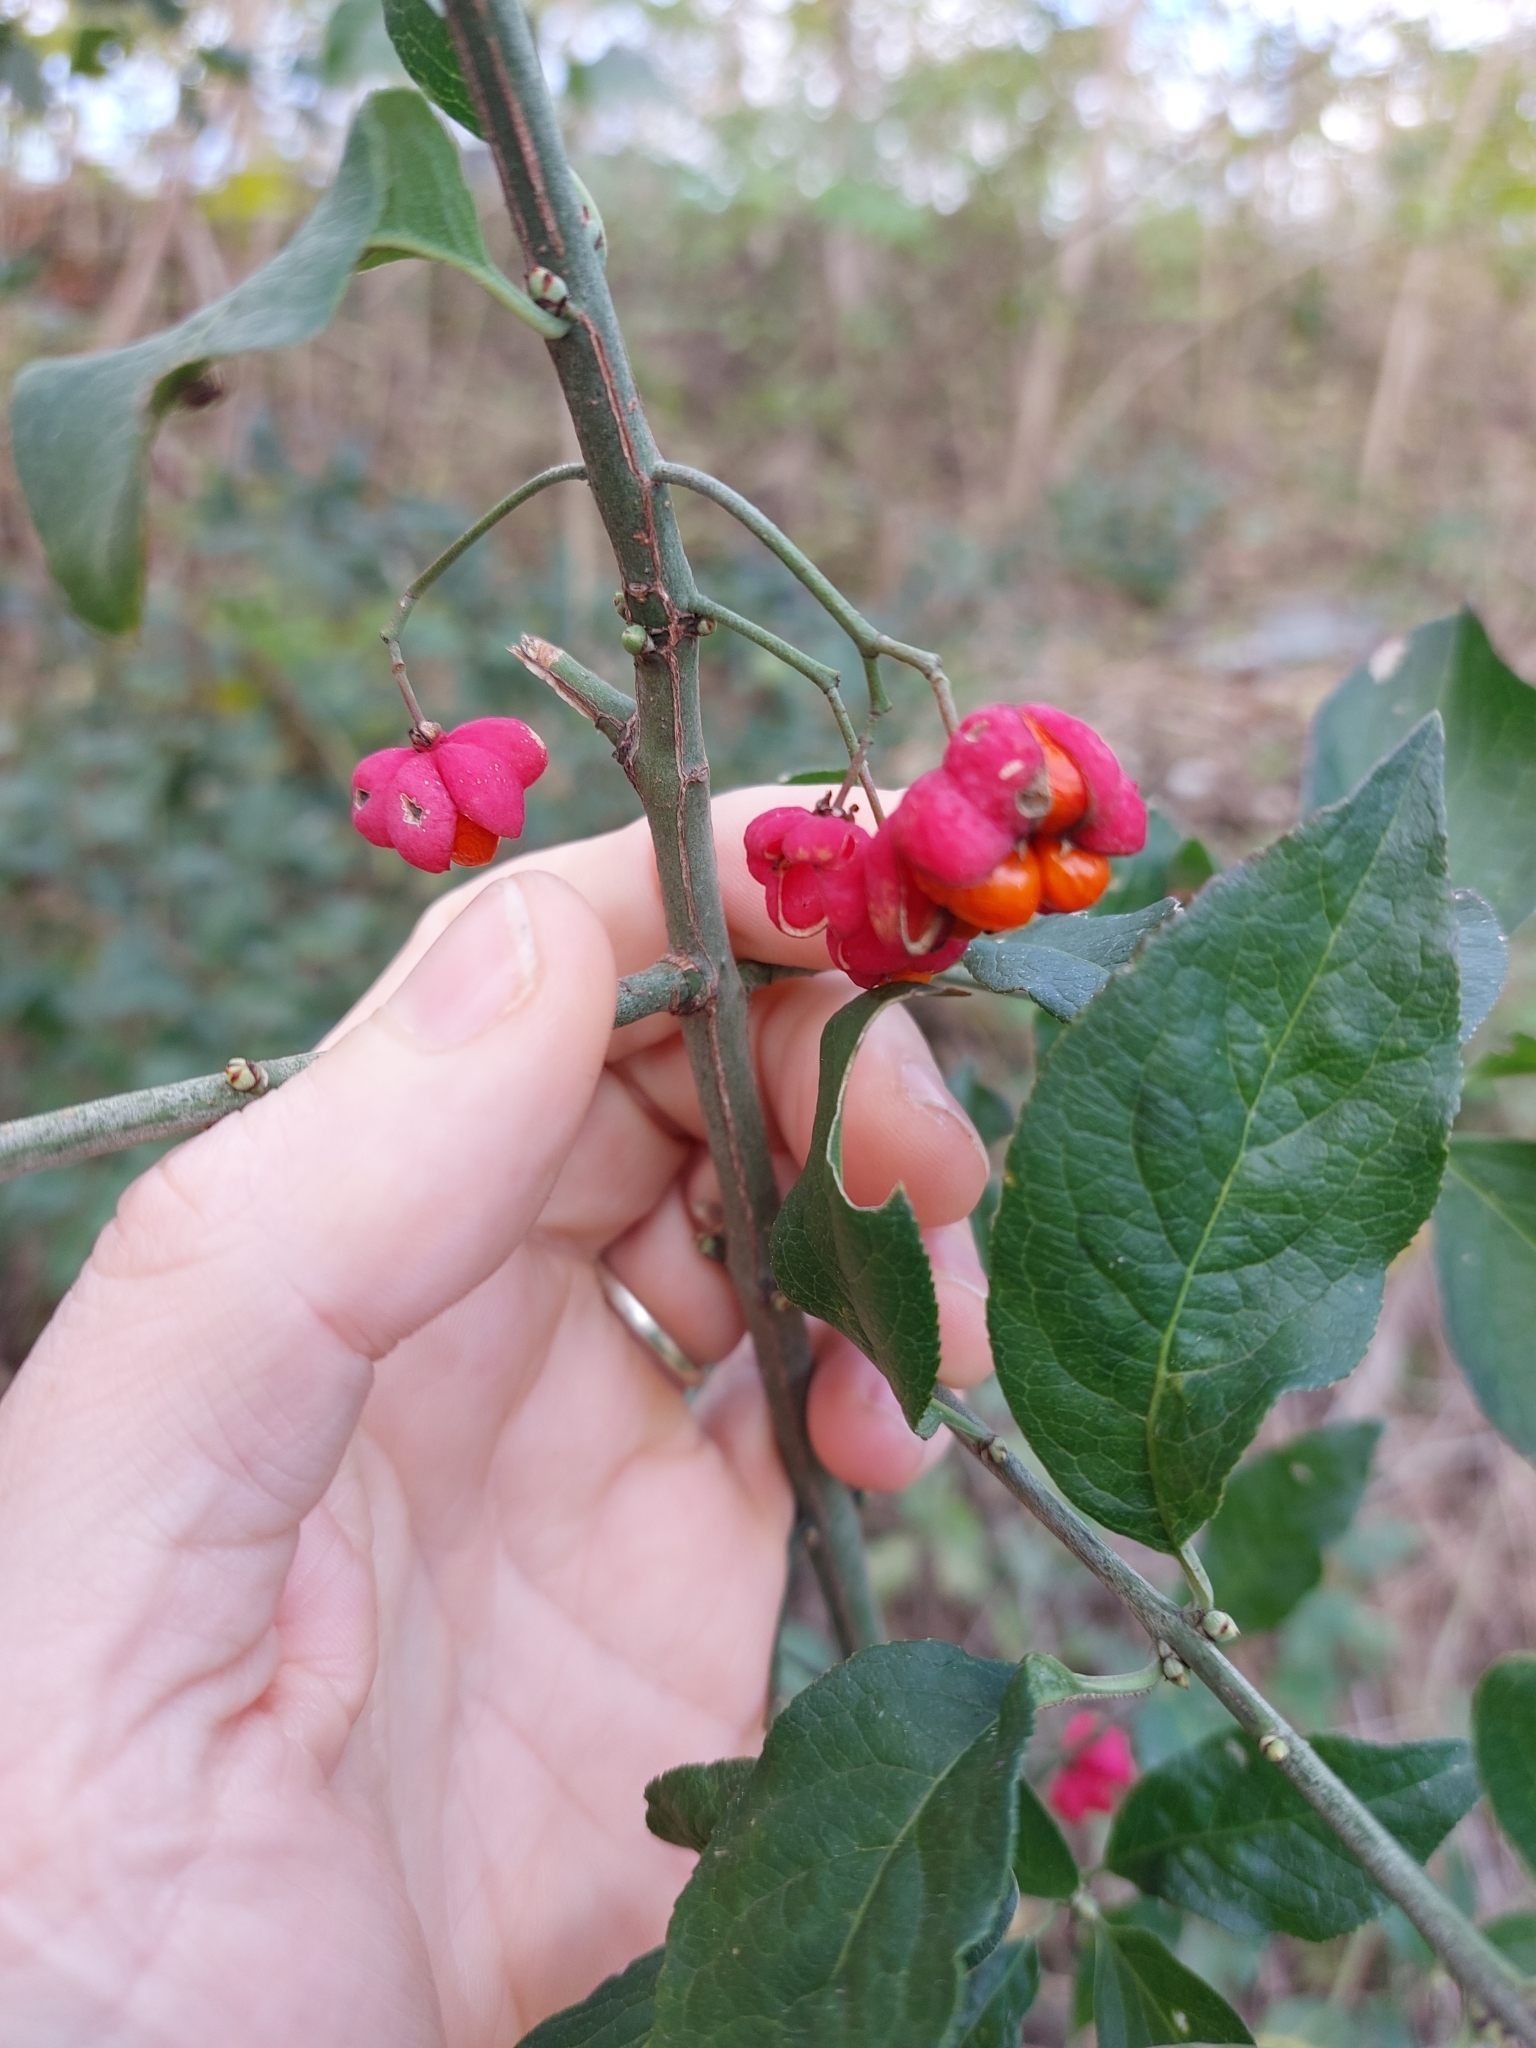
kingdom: Plantae
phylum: Tracheophyta
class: Magnoliopsida
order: Celastrales
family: Celastraceae
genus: Euonymus
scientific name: Euonymus europaeus
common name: Spindle
